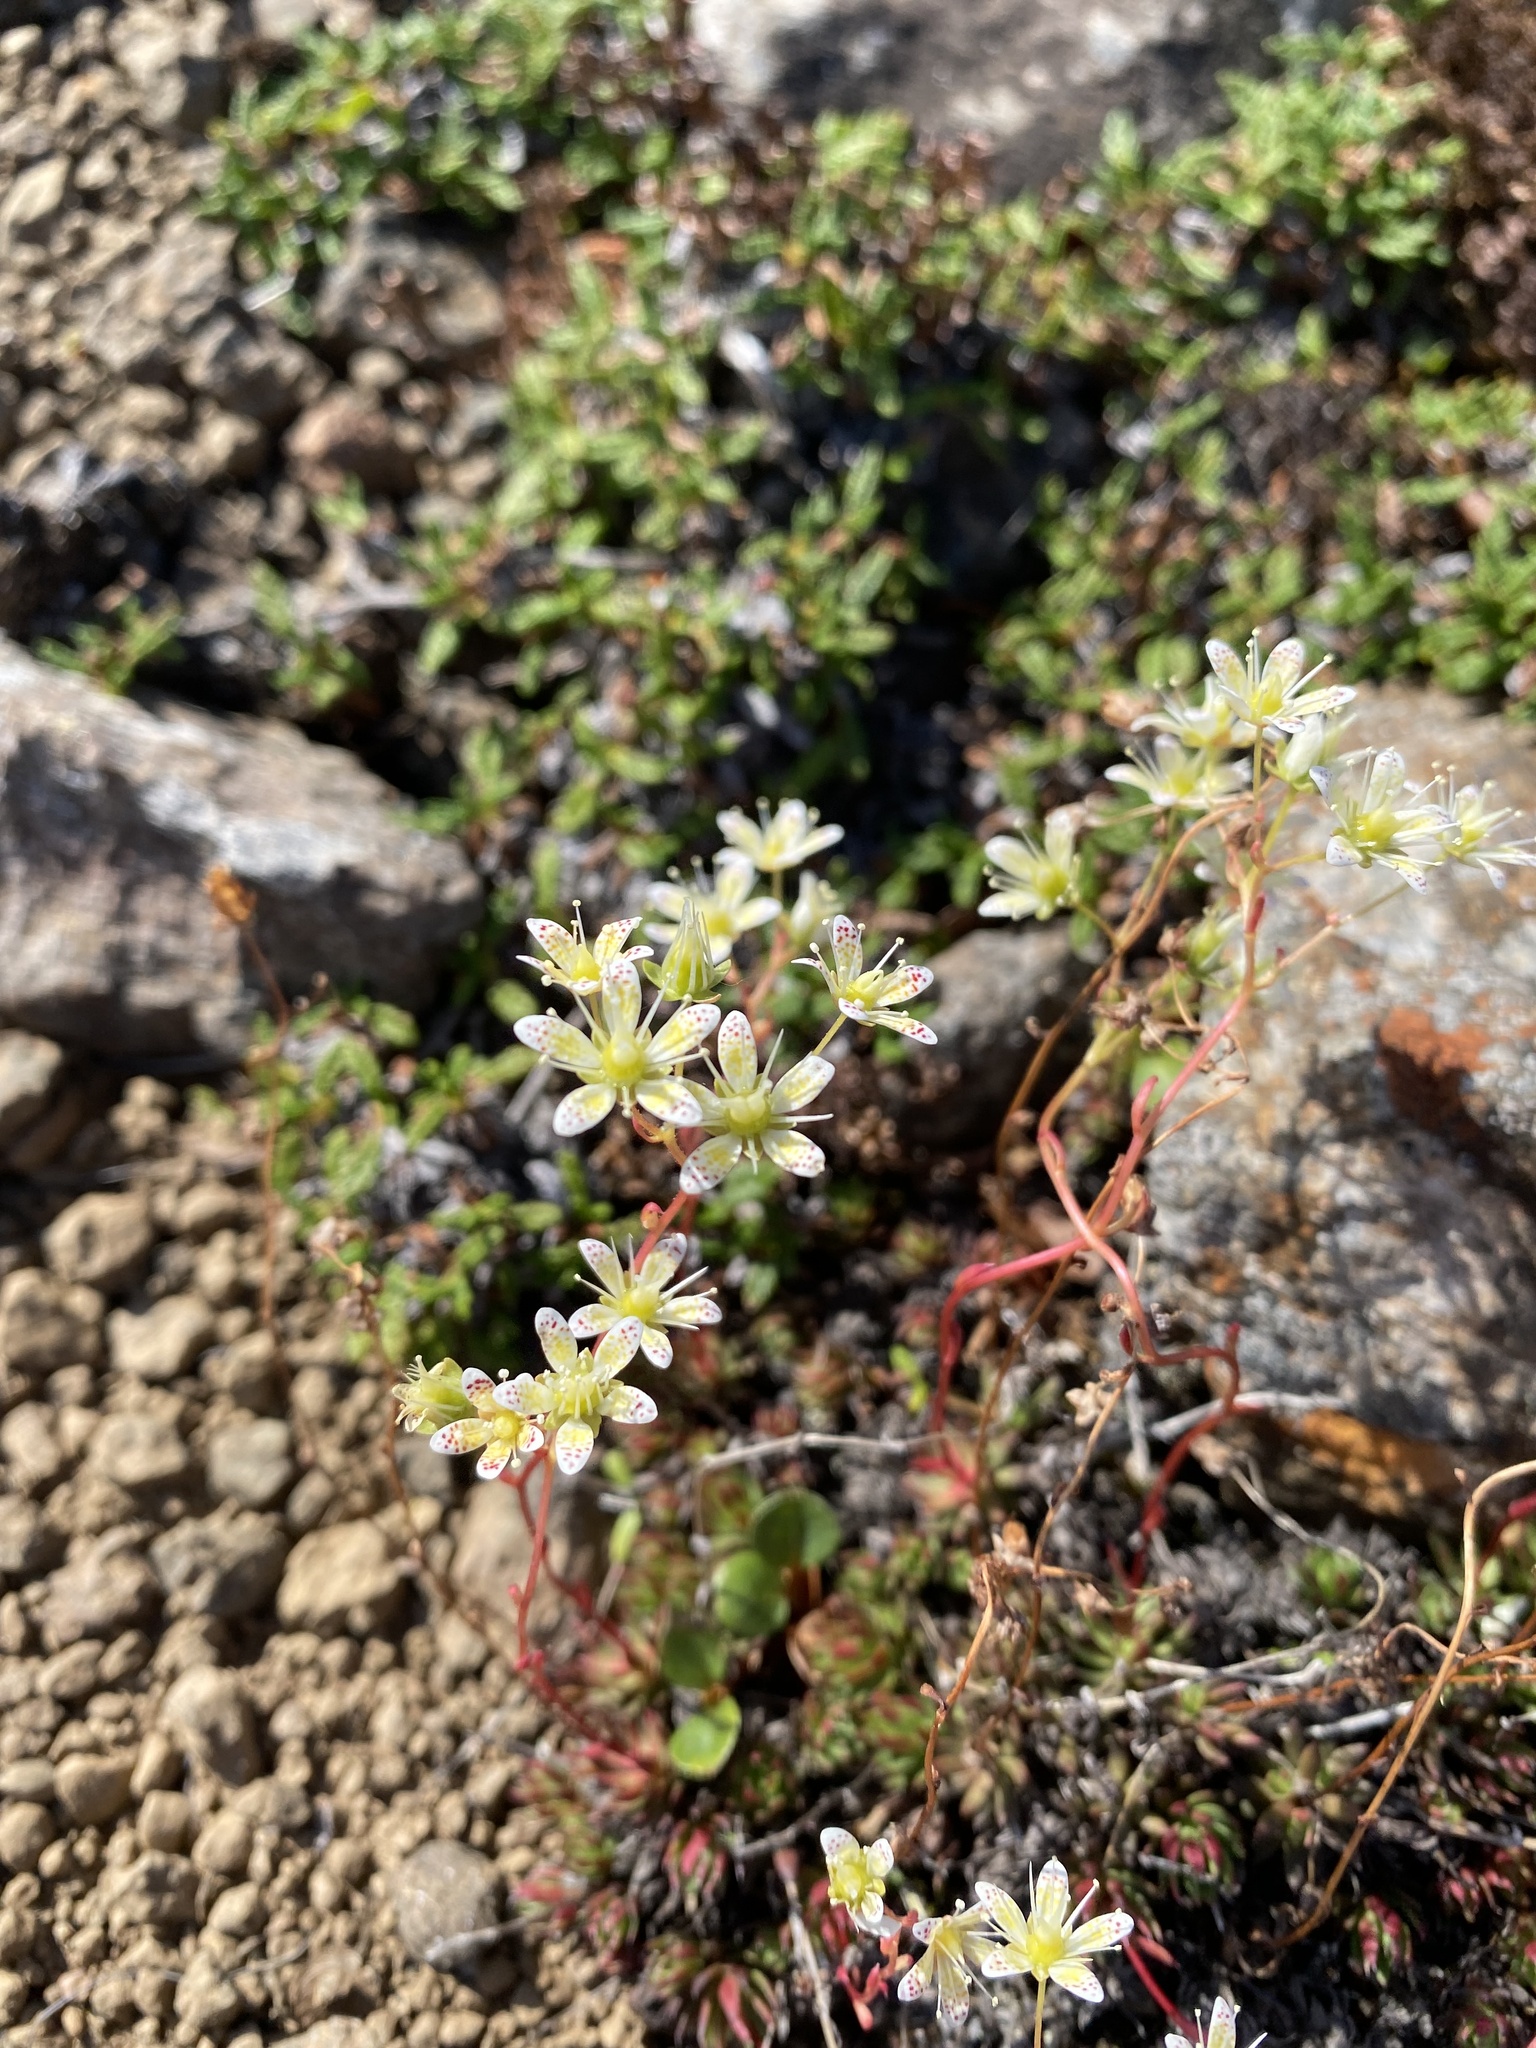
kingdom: Plantae
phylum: Tracheophyta
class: Magnoliopsida
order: Saxifragales
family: Saxifragaceae
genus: Saxifraga
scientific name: Saxifraga
